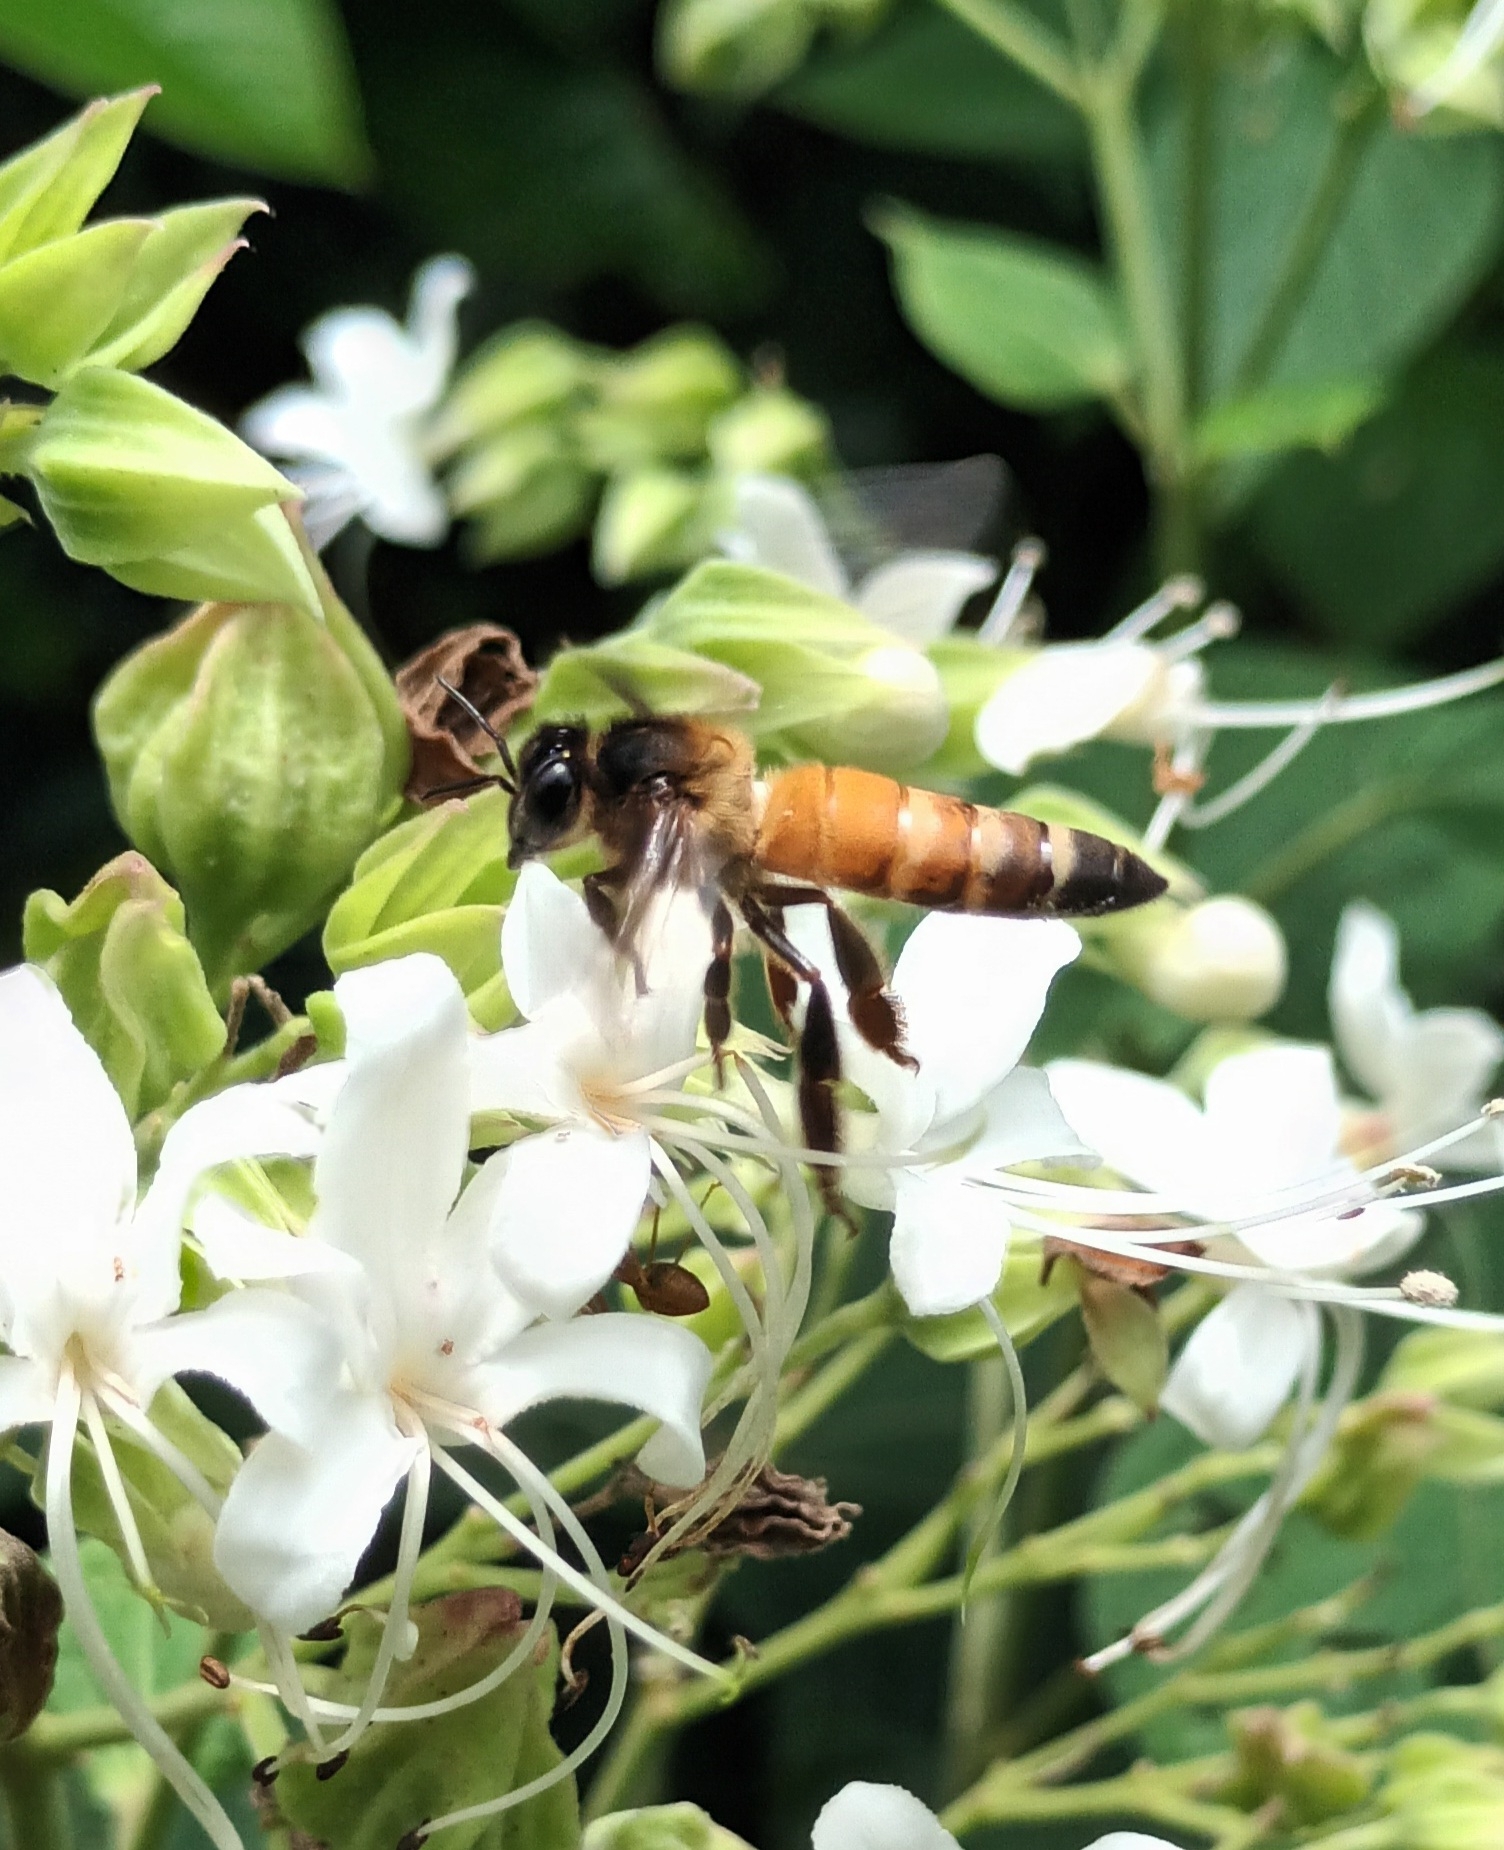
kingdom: Animalia
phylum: Arthropoda
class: Insecta
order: Hymenoptera
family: Apidae
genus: Apis
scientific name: Apis dorsata
